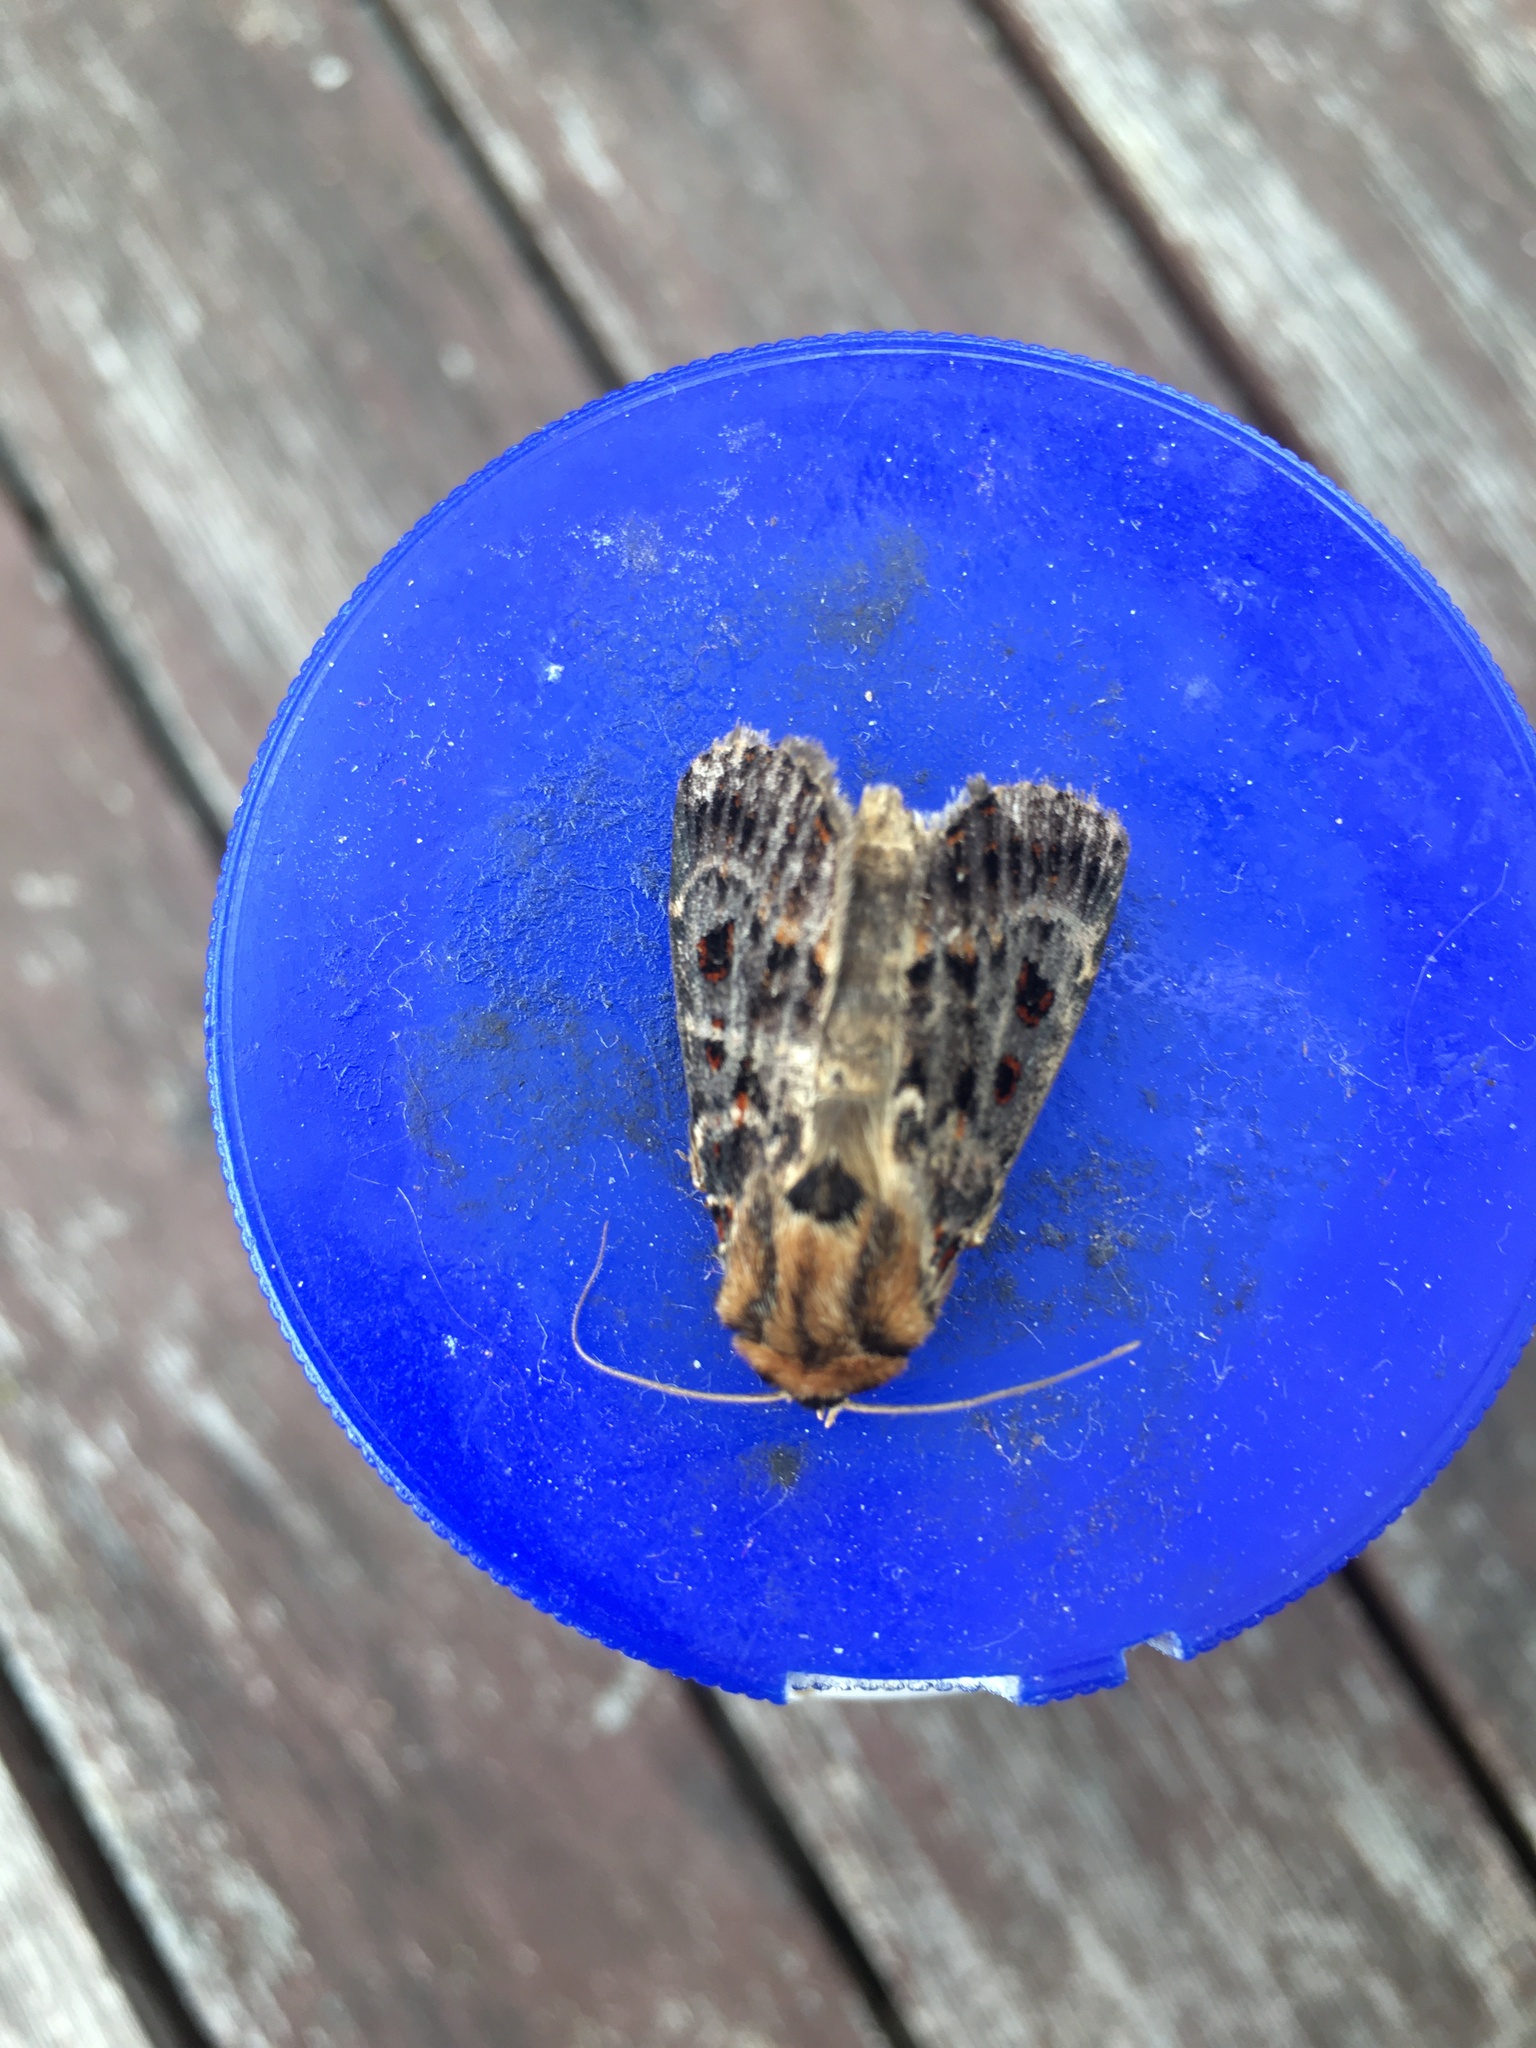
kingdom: Animalia
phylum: Arthropoda
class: Insecta
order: Lepidoptera
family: Noctuidae
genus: Proteuxoa
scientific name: Proteuxoa sanguinipuncta
